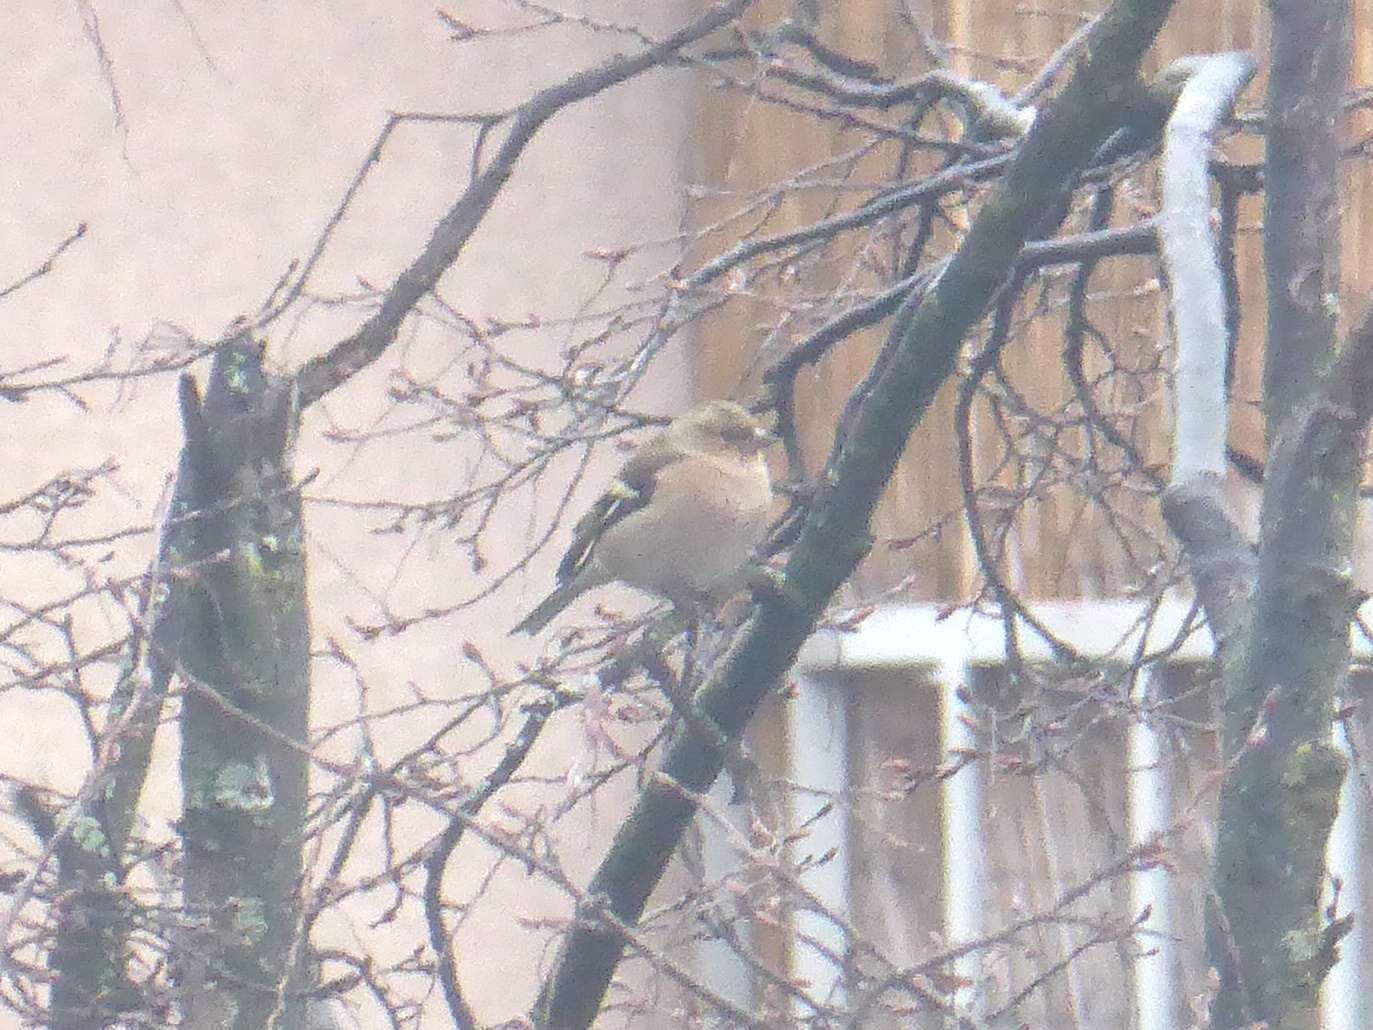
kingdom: Animalia
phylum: Chordata
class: Aves
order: Passeriformes
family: Fringillidae
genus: Fringilla
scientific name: Fringilla coelebs
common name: Common chaffinch
